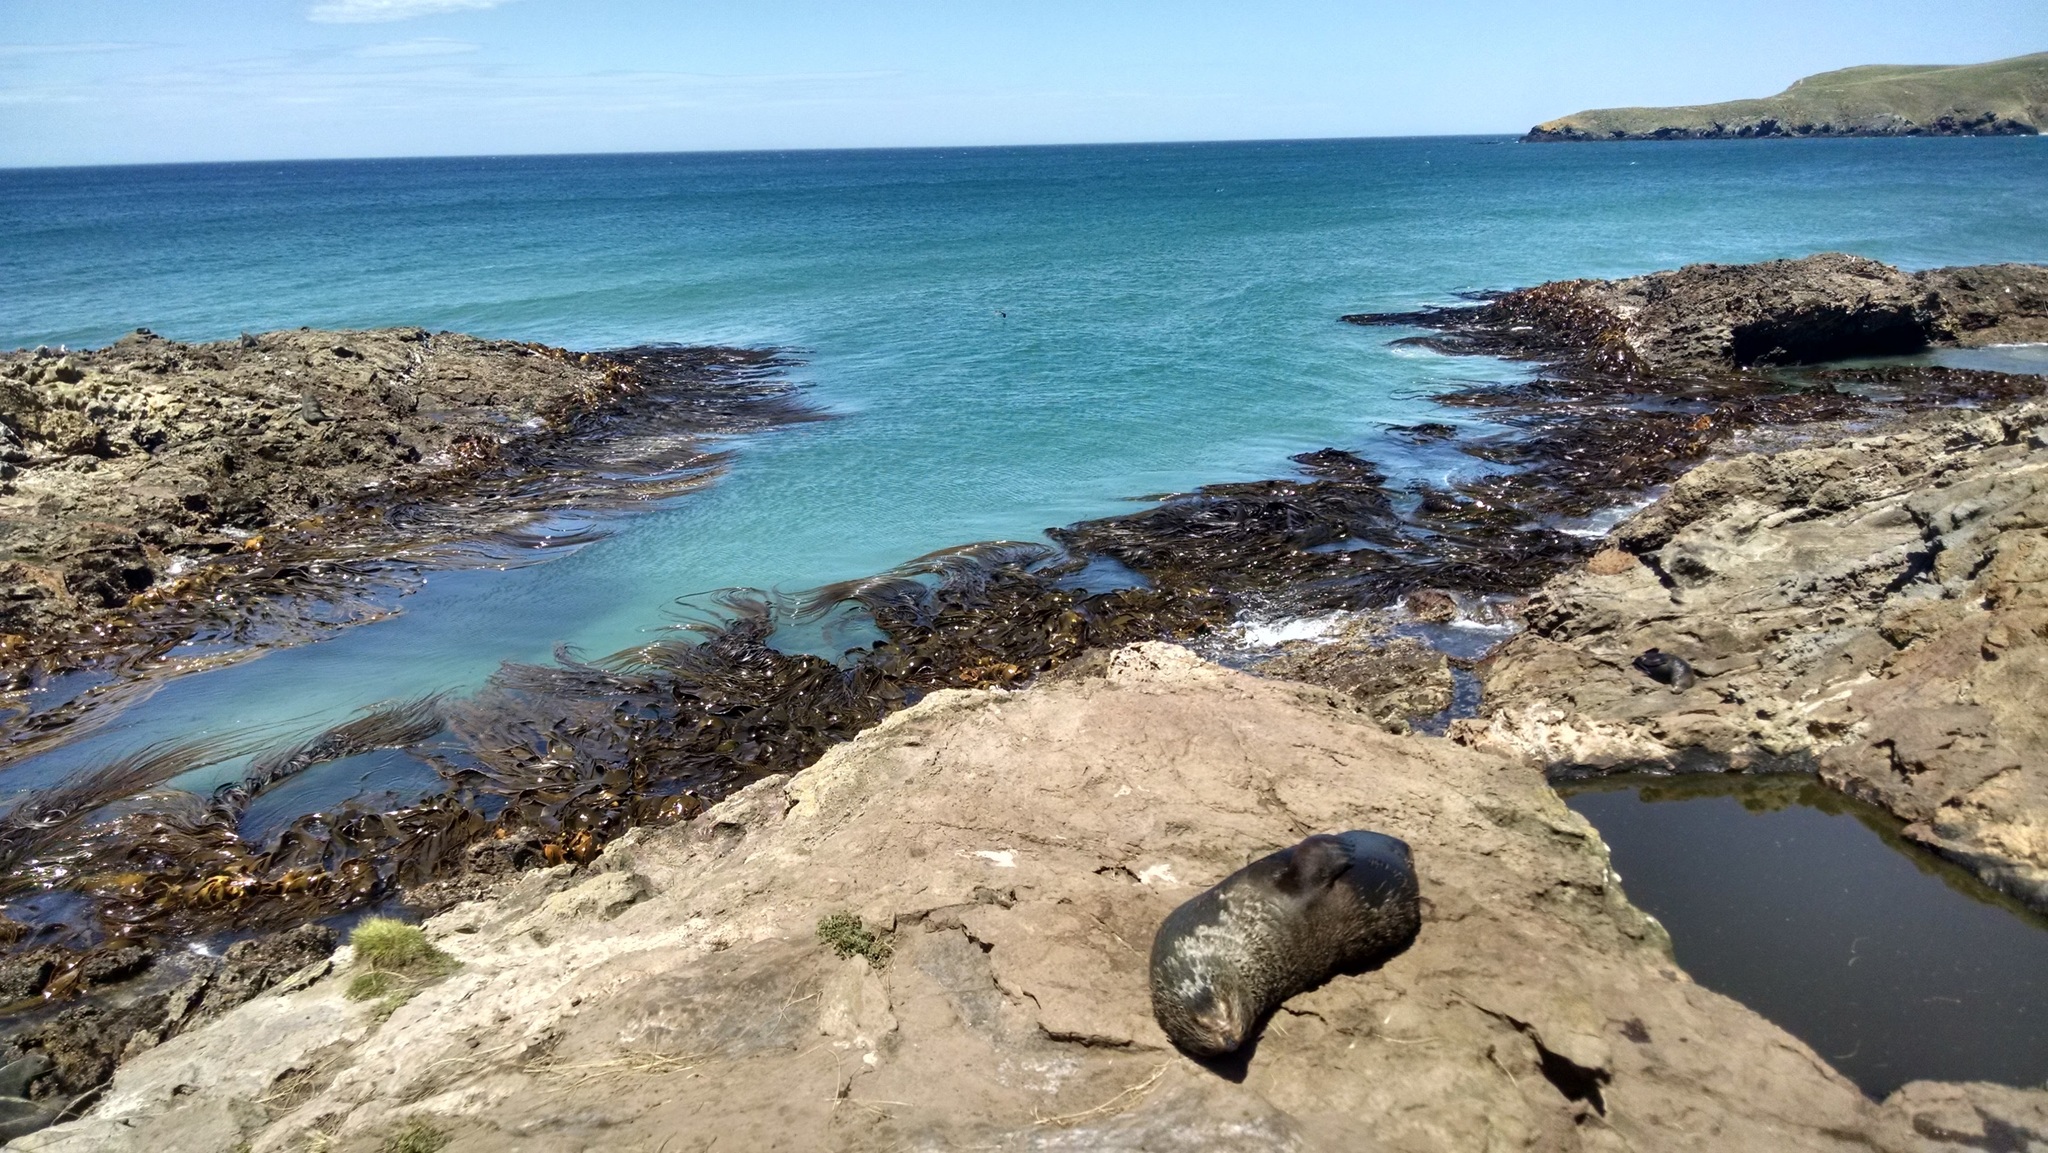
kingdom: Animalia
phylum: Chordata
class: Mammalia
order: Carnivora
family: Otariidae
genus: Arctocephalus
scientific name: Arctocephalus forsteri
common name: New zealand fur seal
